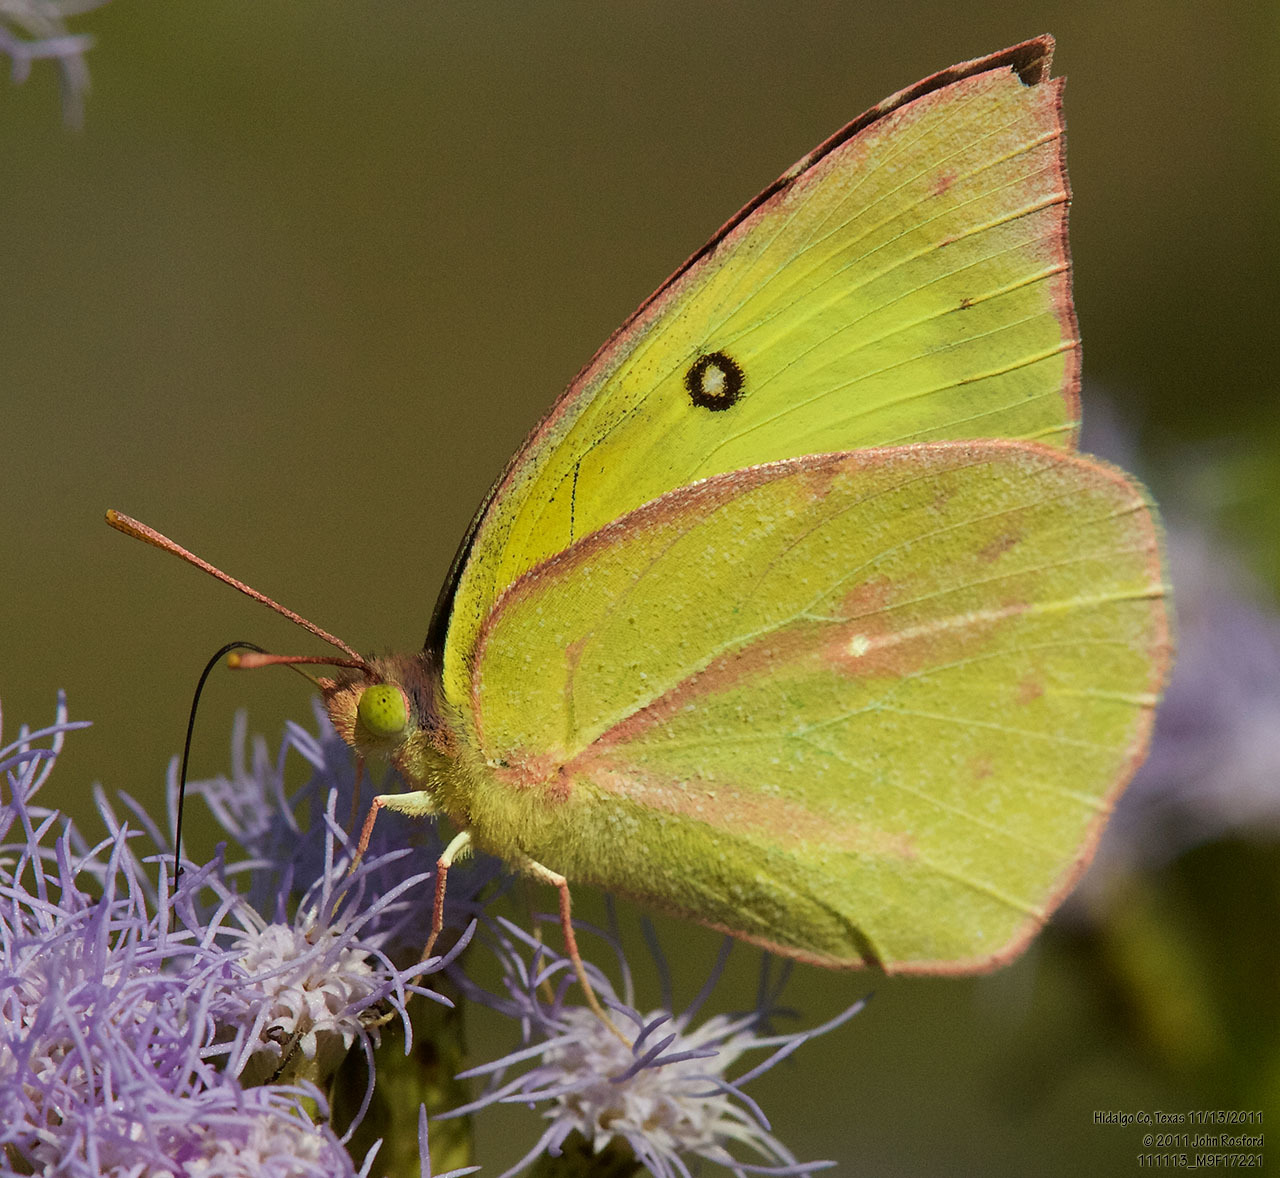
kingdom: Animalia
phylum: Arthropoda
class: Insecta
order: Lepidoptera
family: Pieridae
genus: Zerene
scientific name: Zerene cesonia
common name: Southern dogface
